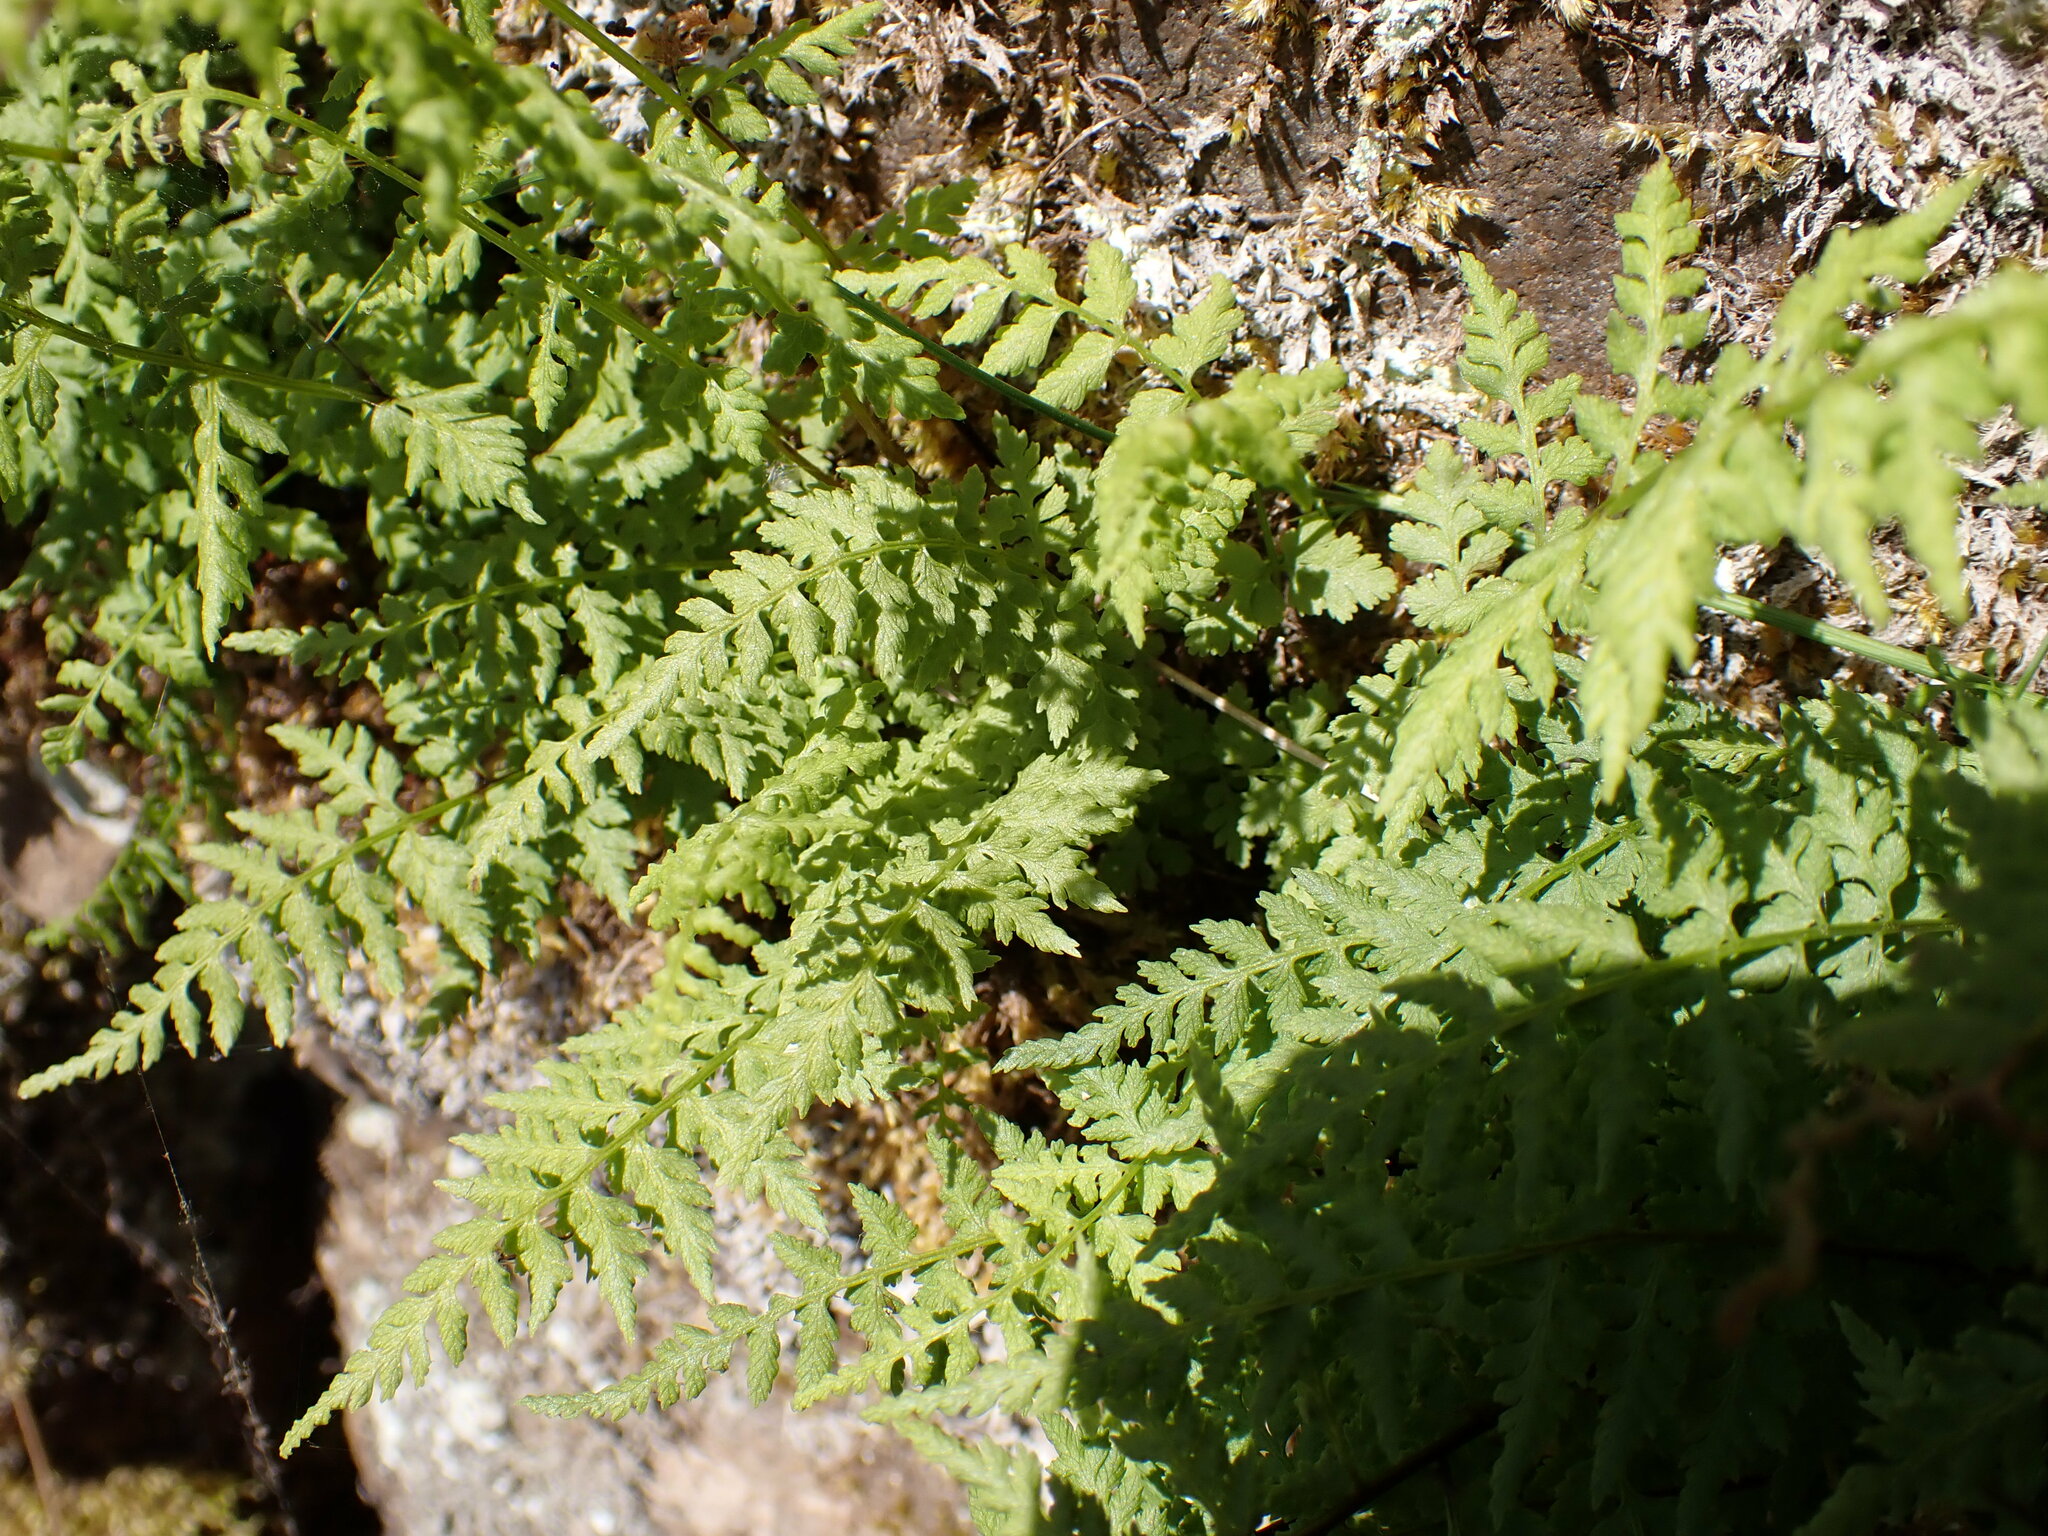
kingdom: Plantae
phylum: Tracheophyta
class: Polypodiopsida
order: Polypodiales
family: Cystopteridaceae
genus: Cystopteris
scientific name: Cystopteris fragilis
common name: Brittle bladder fern
